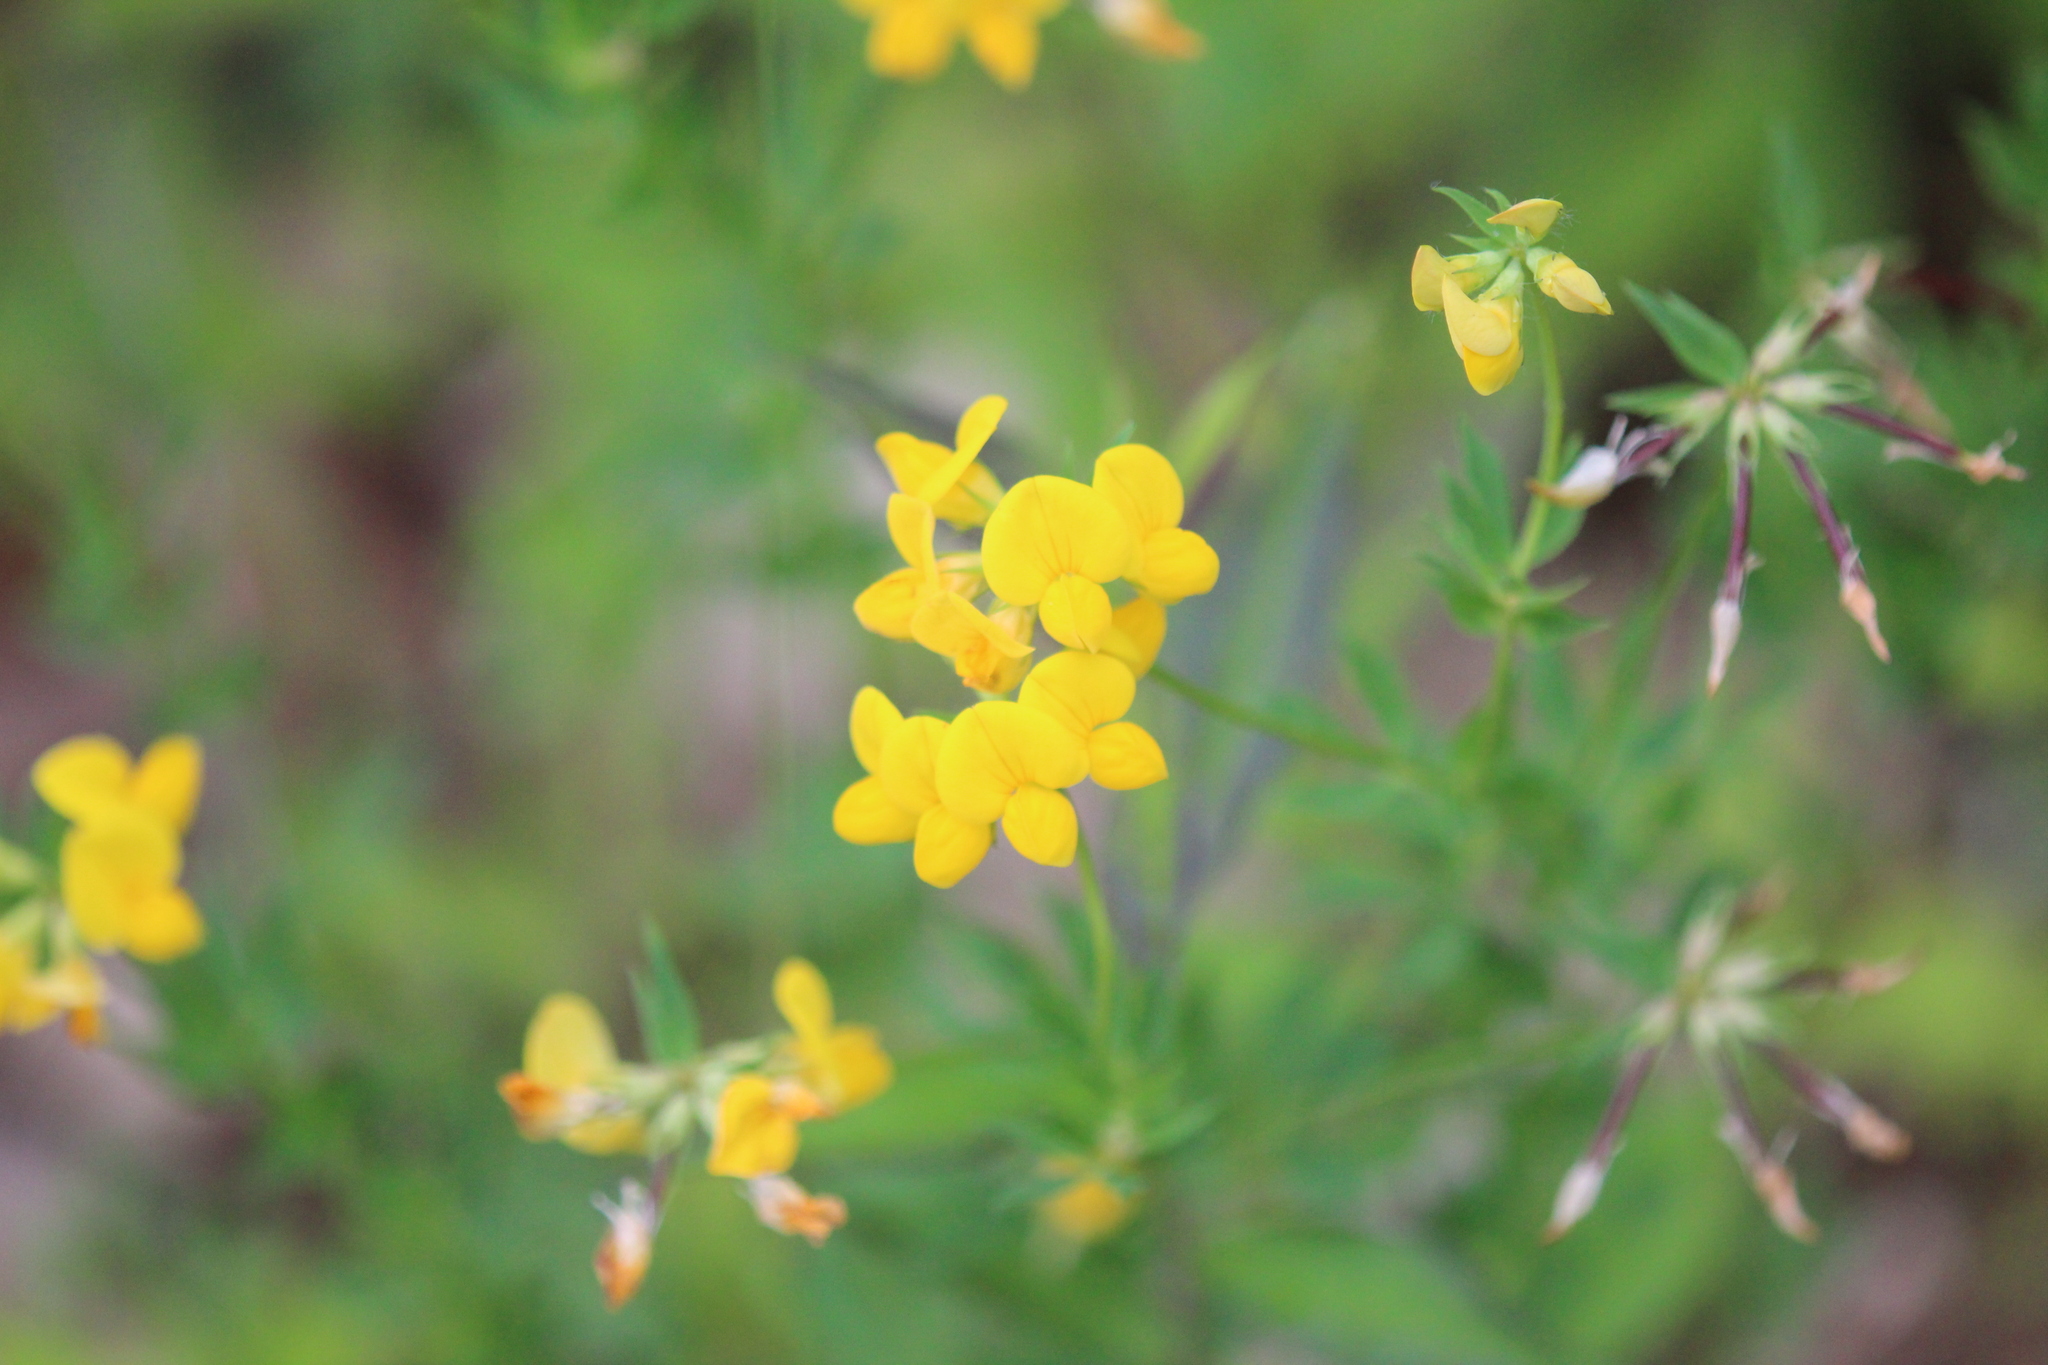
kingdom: Plantae
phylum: Tracheophyta
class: Magnoliopsida
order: Fabales
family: Fabaceae
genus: Lotus
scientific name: Lotus corniculatus
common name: Common bird's-foot-trefoil
